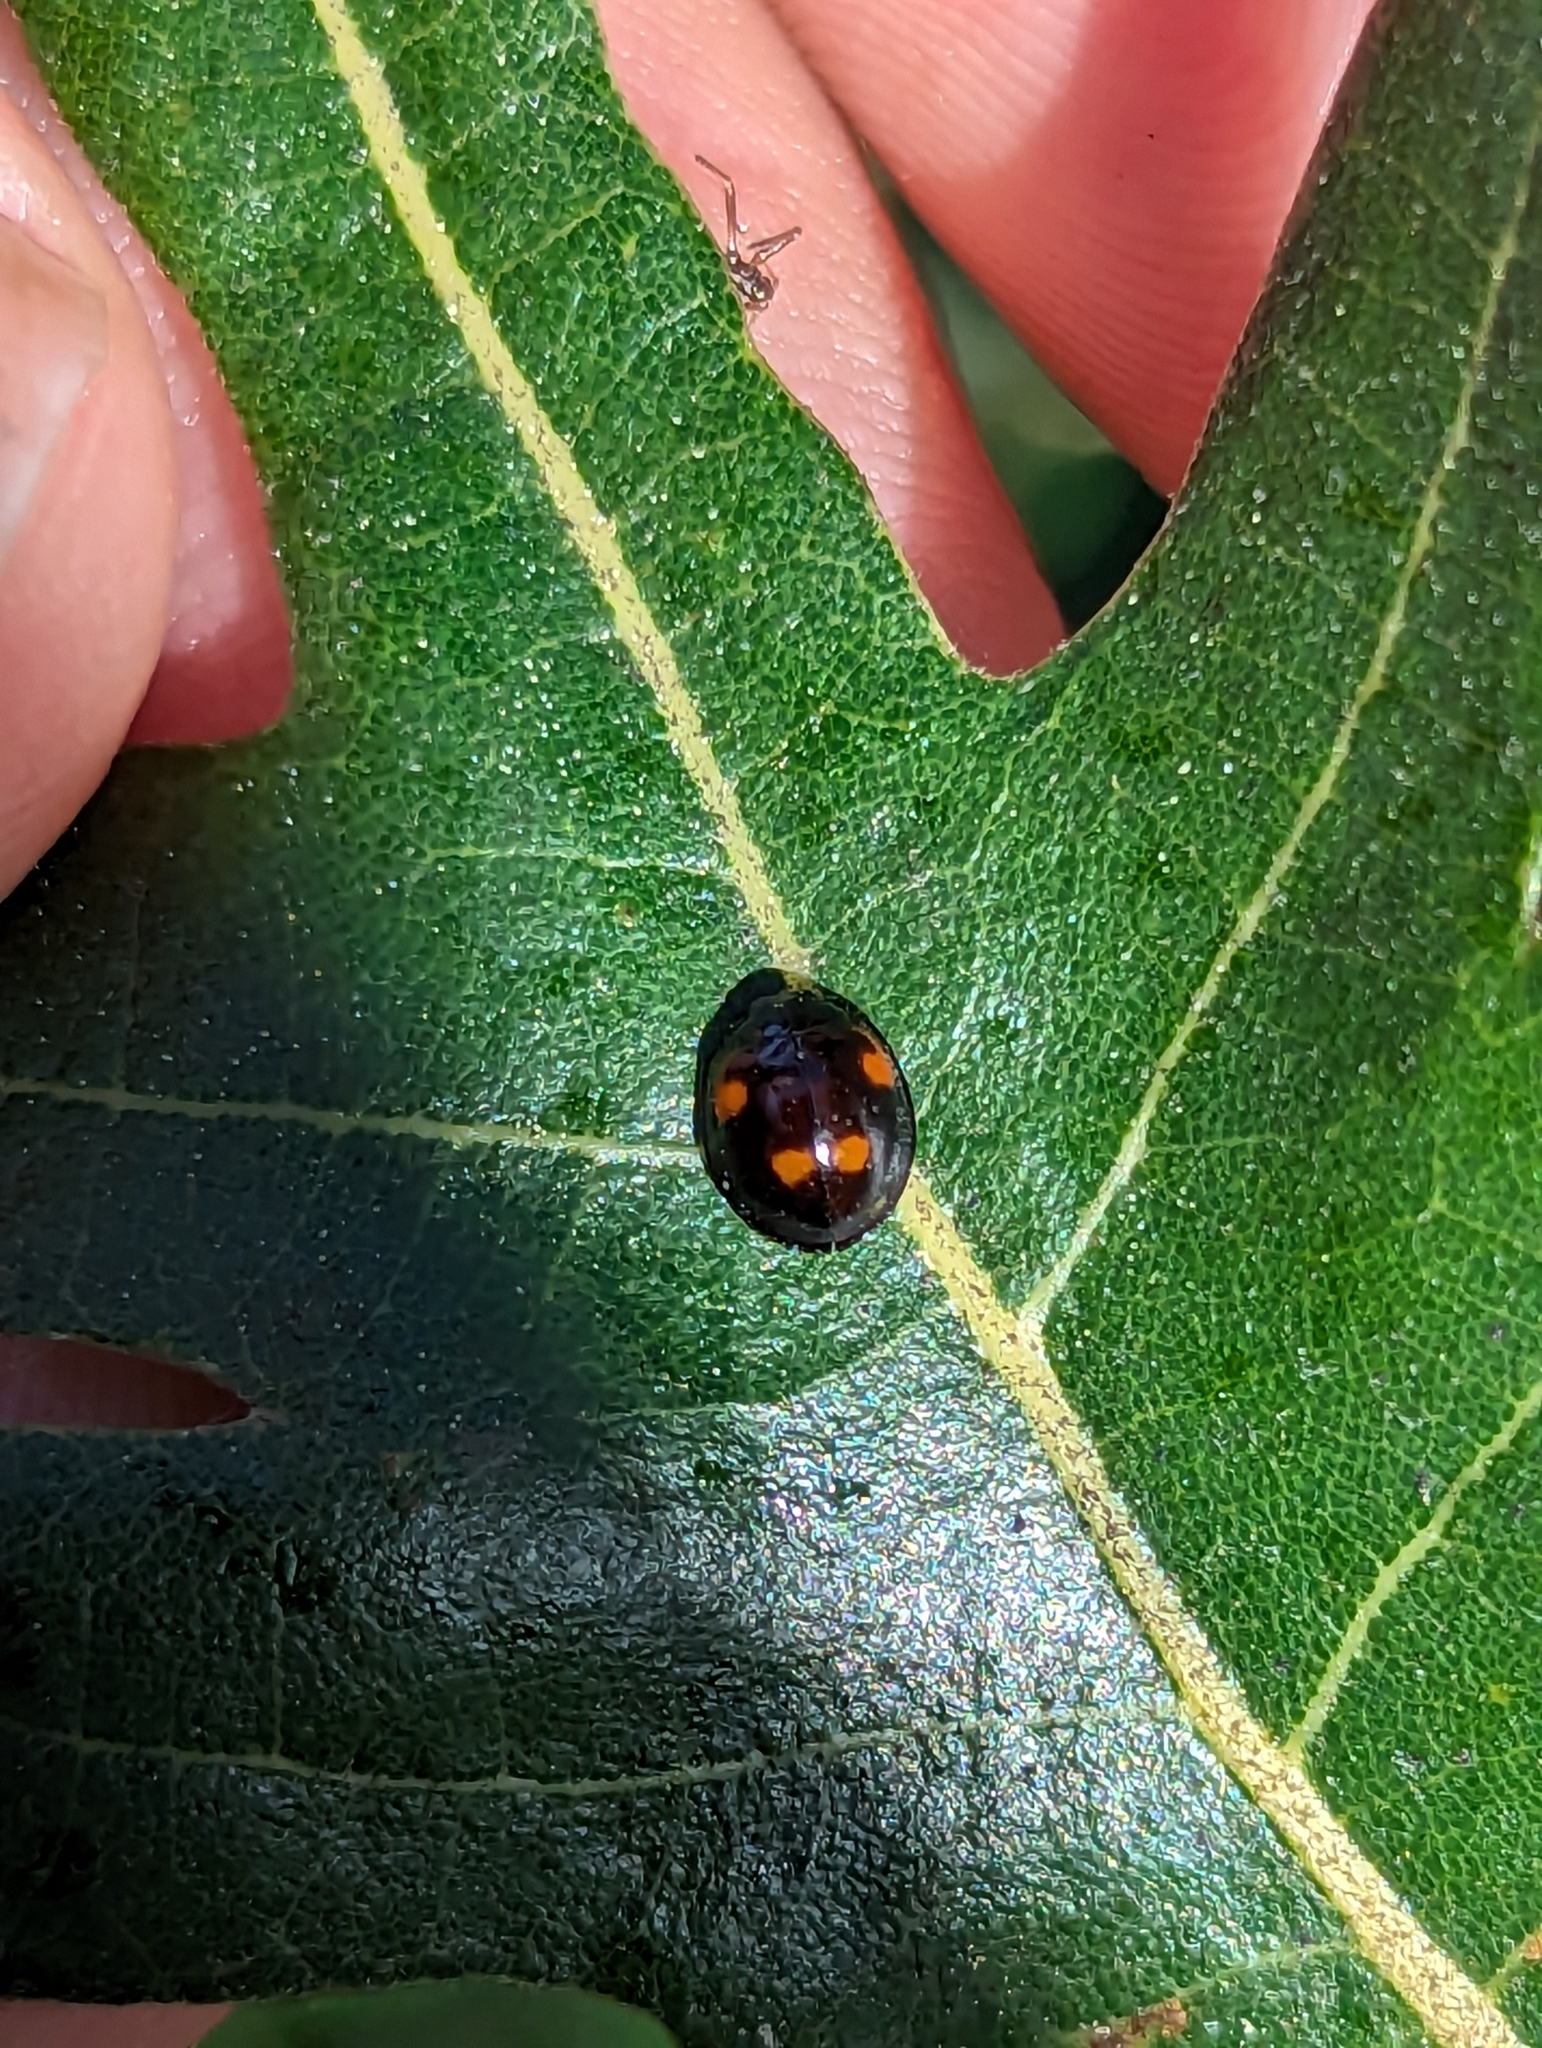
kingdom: Animalia
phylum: Arthropoda
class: Insecta
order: Coleoptera
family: Coccinellidae
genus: Brumus
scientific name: Brumus quadripustulatus
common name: Ladybird beetle
